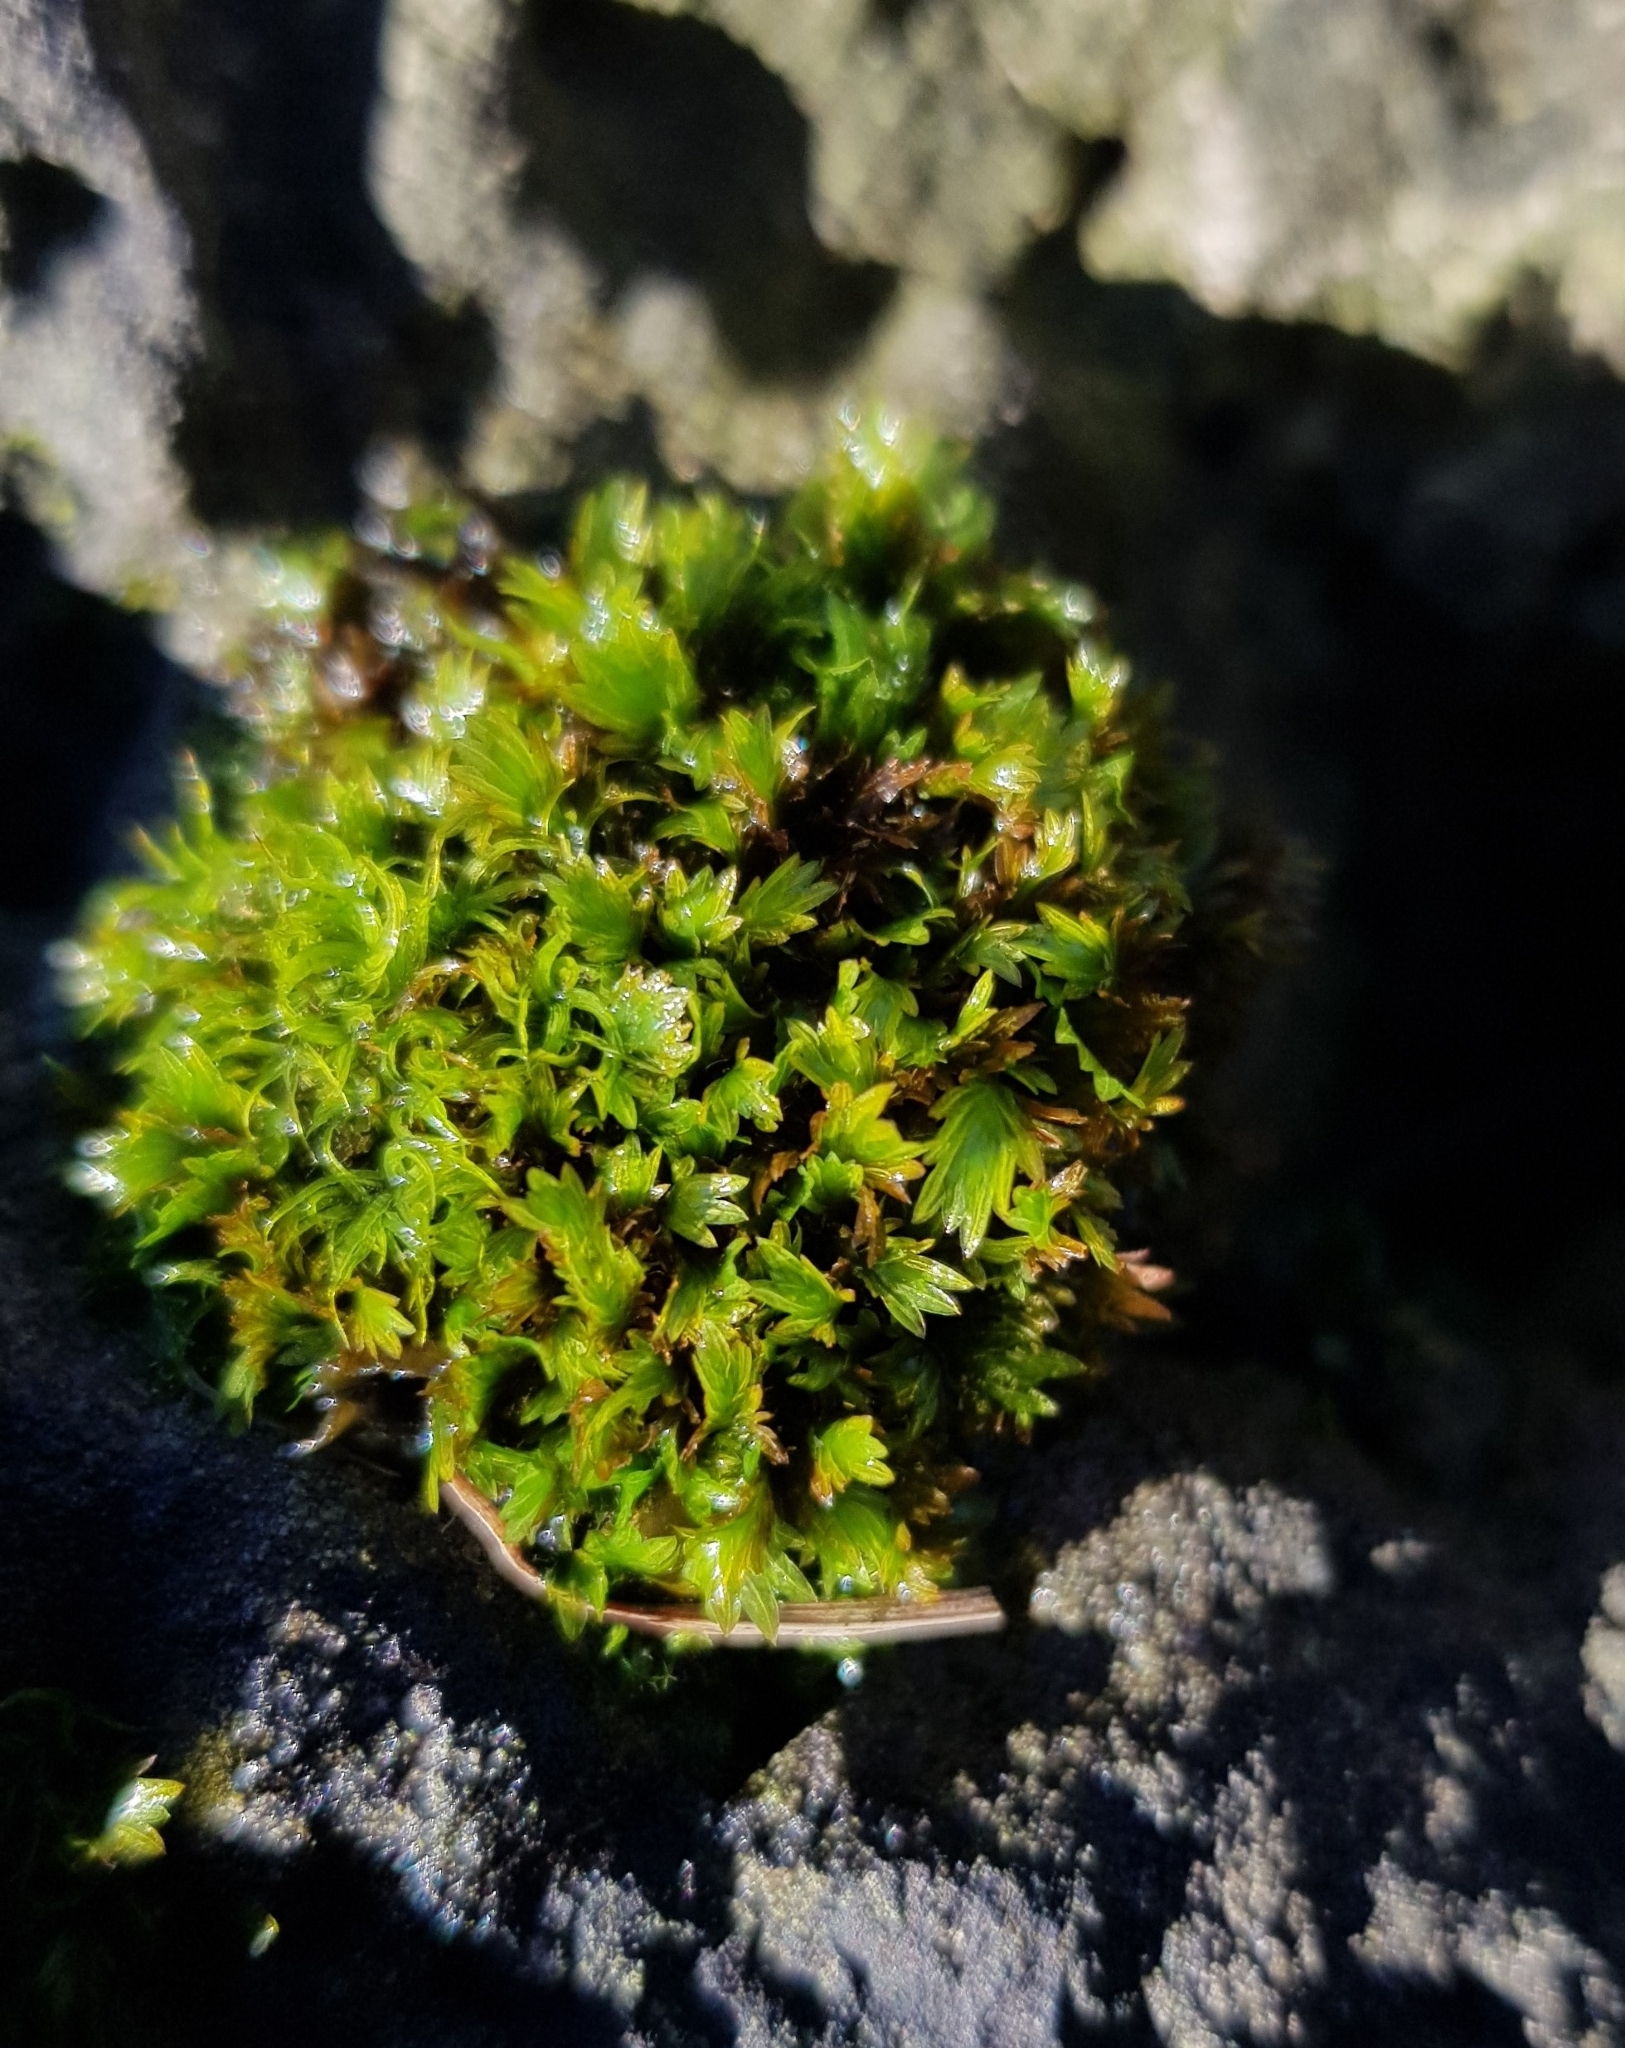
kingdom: Plantae
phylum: Bryophyta
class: Bryopsida
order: Dicranales
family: Fissidentaceae
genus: Fissidens
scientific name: Fissidens dubius
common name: Rock pocket moss
